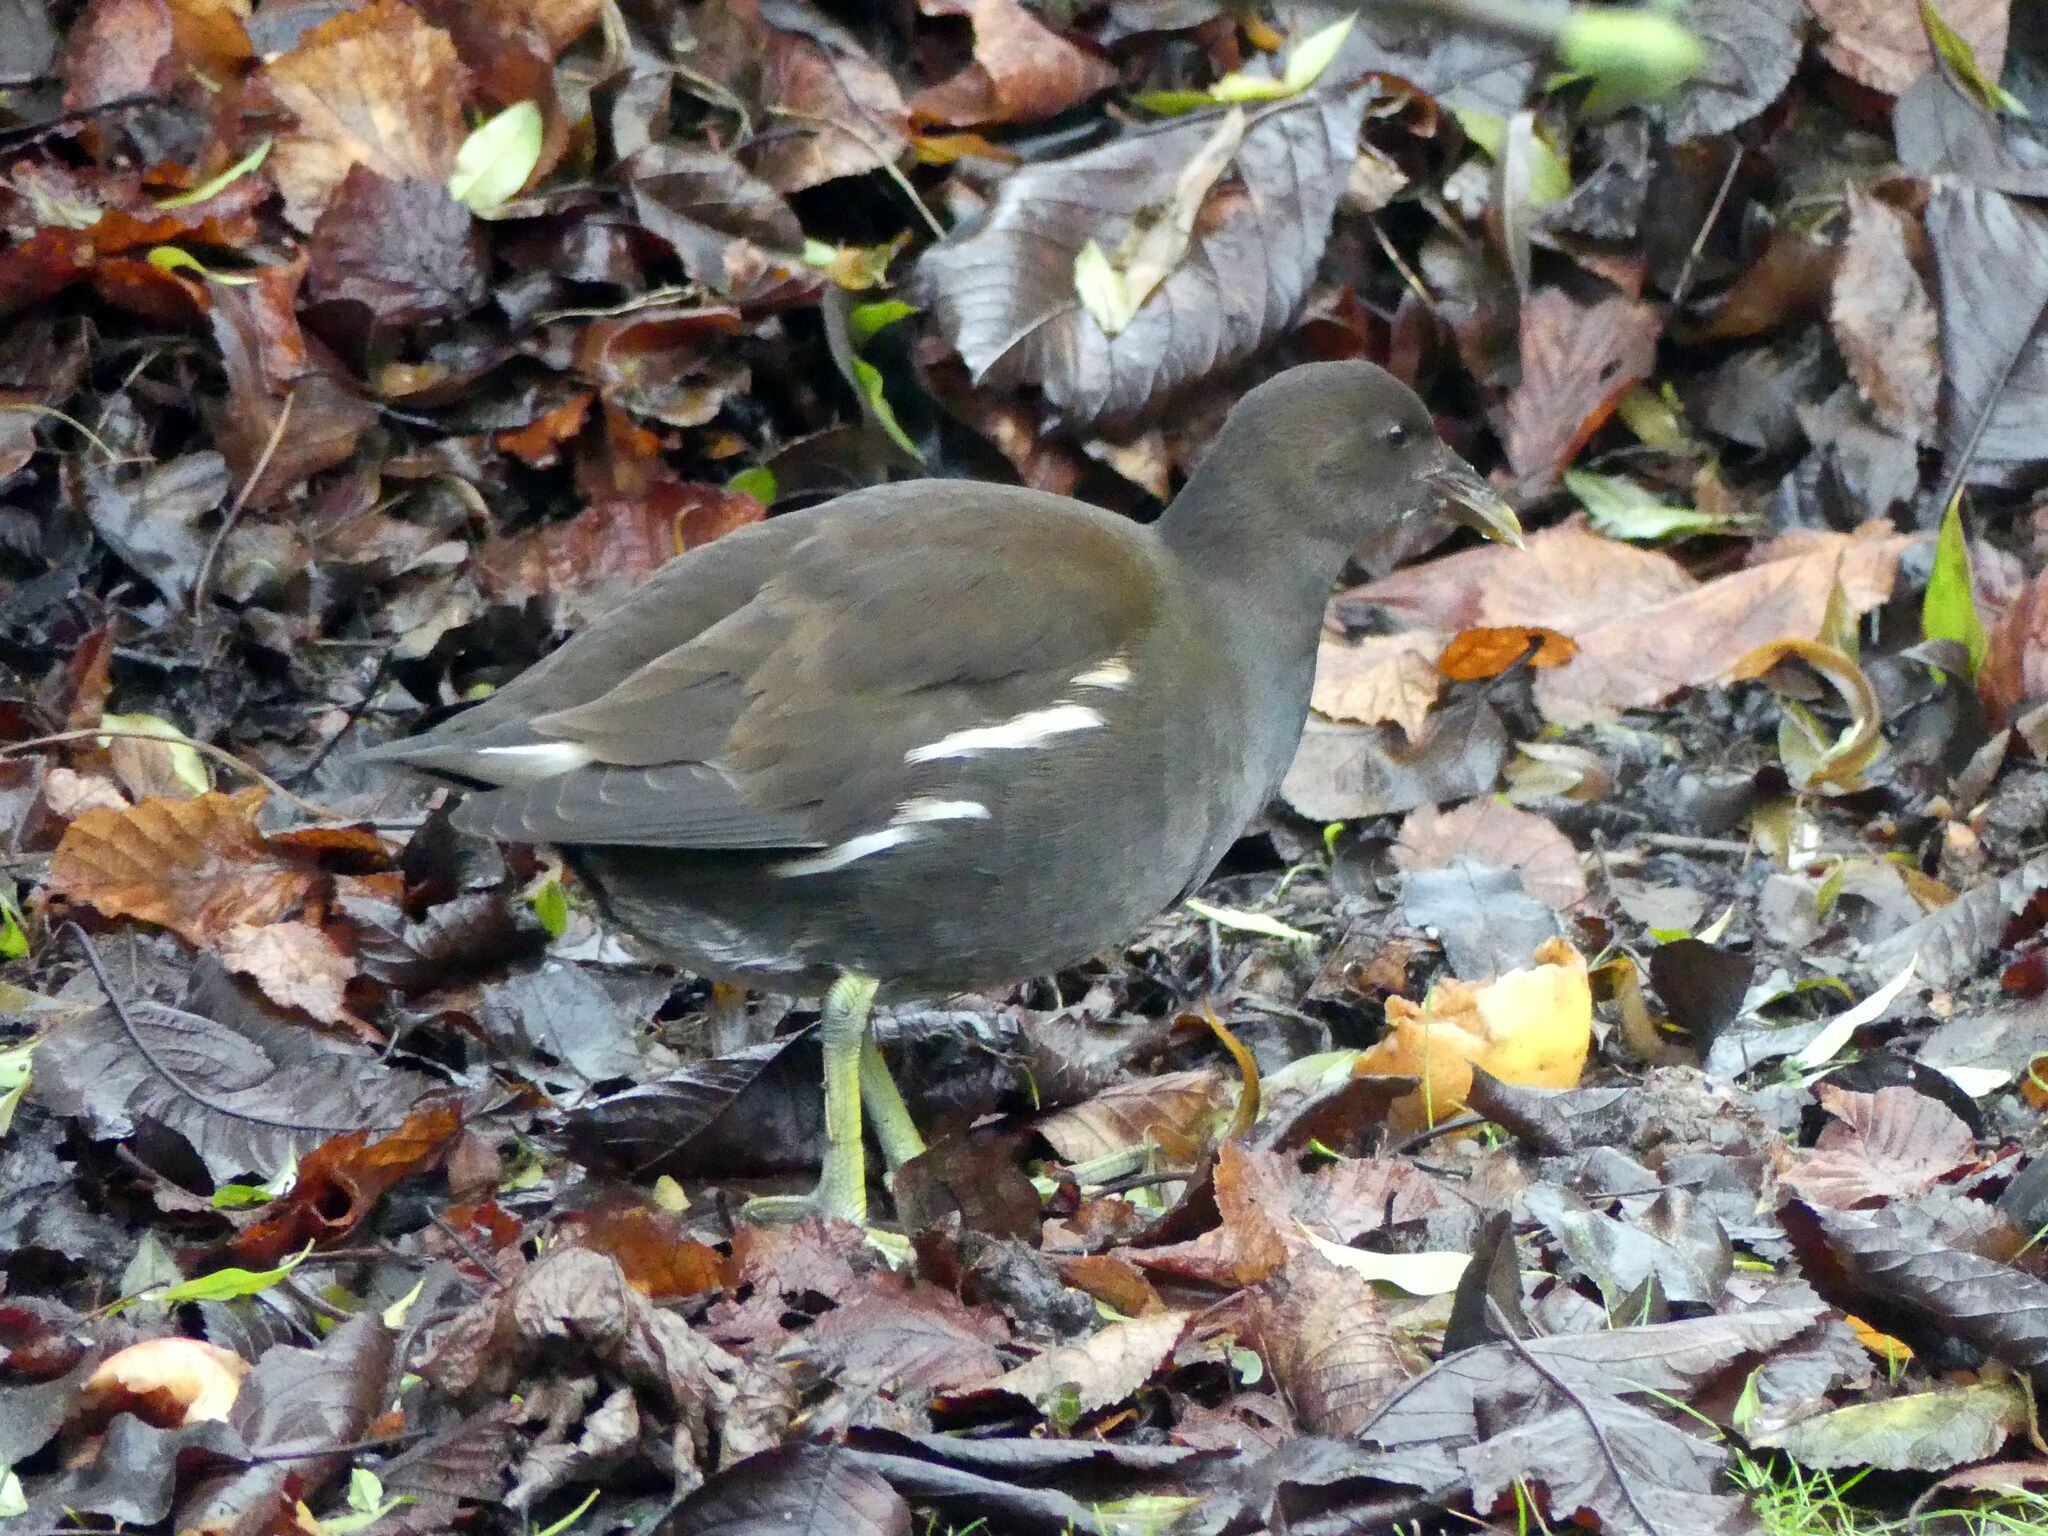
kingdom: Animalia
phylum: Chordata
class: Aves
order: Gruiformes
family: Rallidae
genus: Gallinula
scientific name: Gallinula chloropus
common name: Common moorhen
